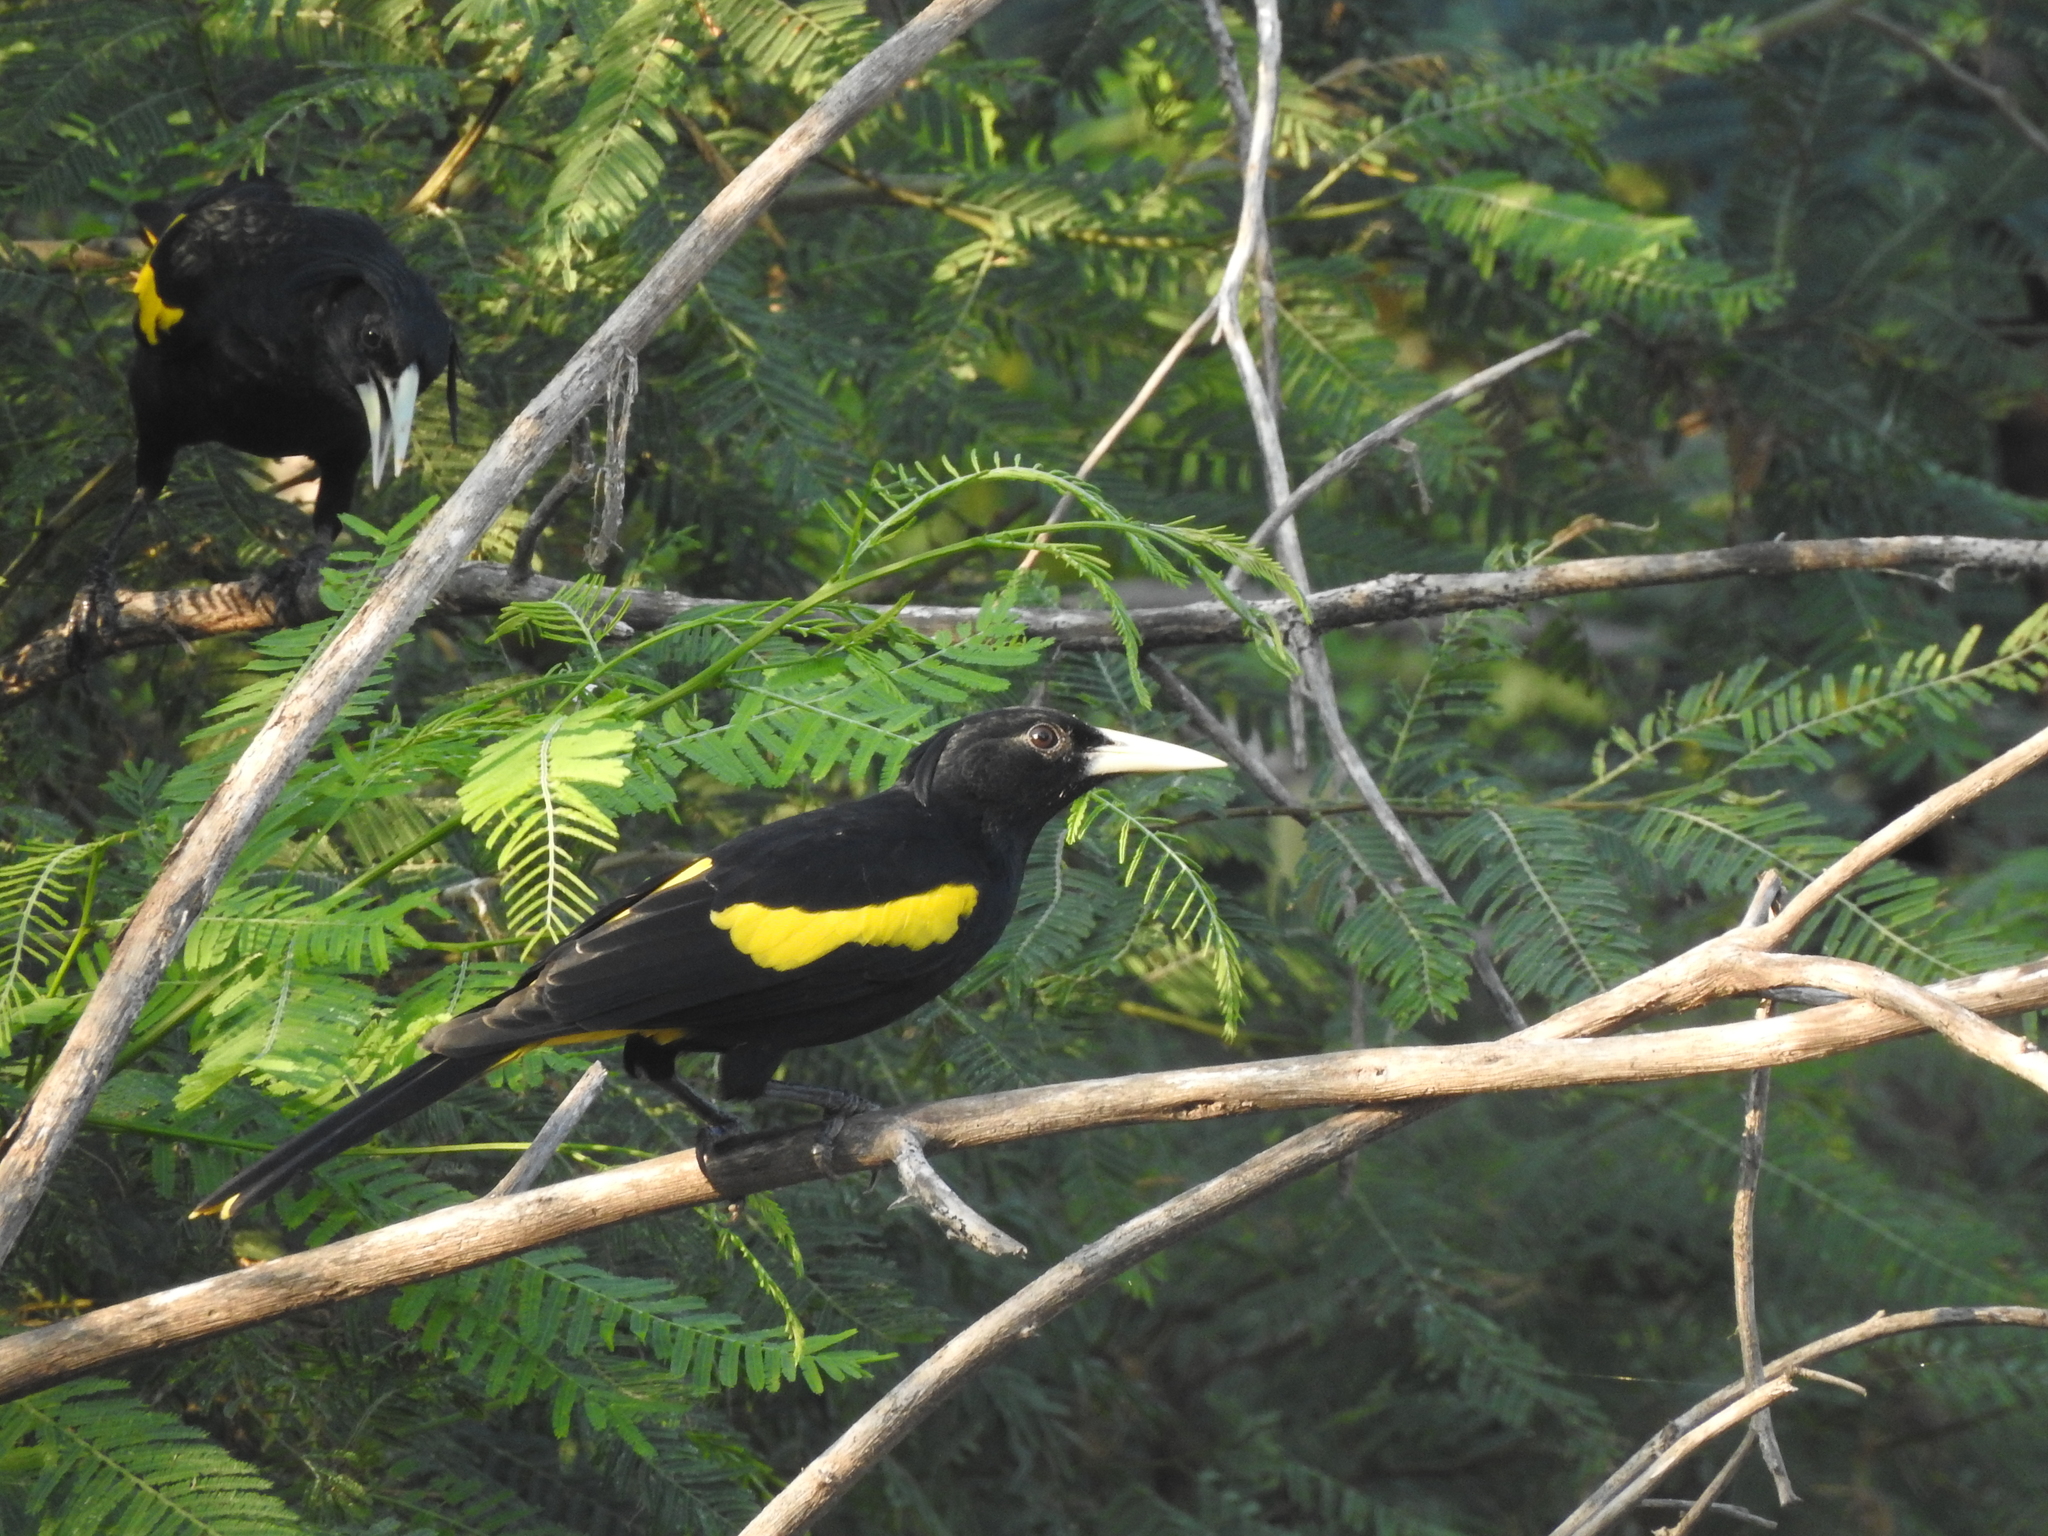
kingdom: Animalia
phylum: Chordata
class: Aves
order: Passeriformes
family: Icteridae
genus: Cacicus
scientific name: Cacicus melanicterus
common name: Yellow-winged cacique
